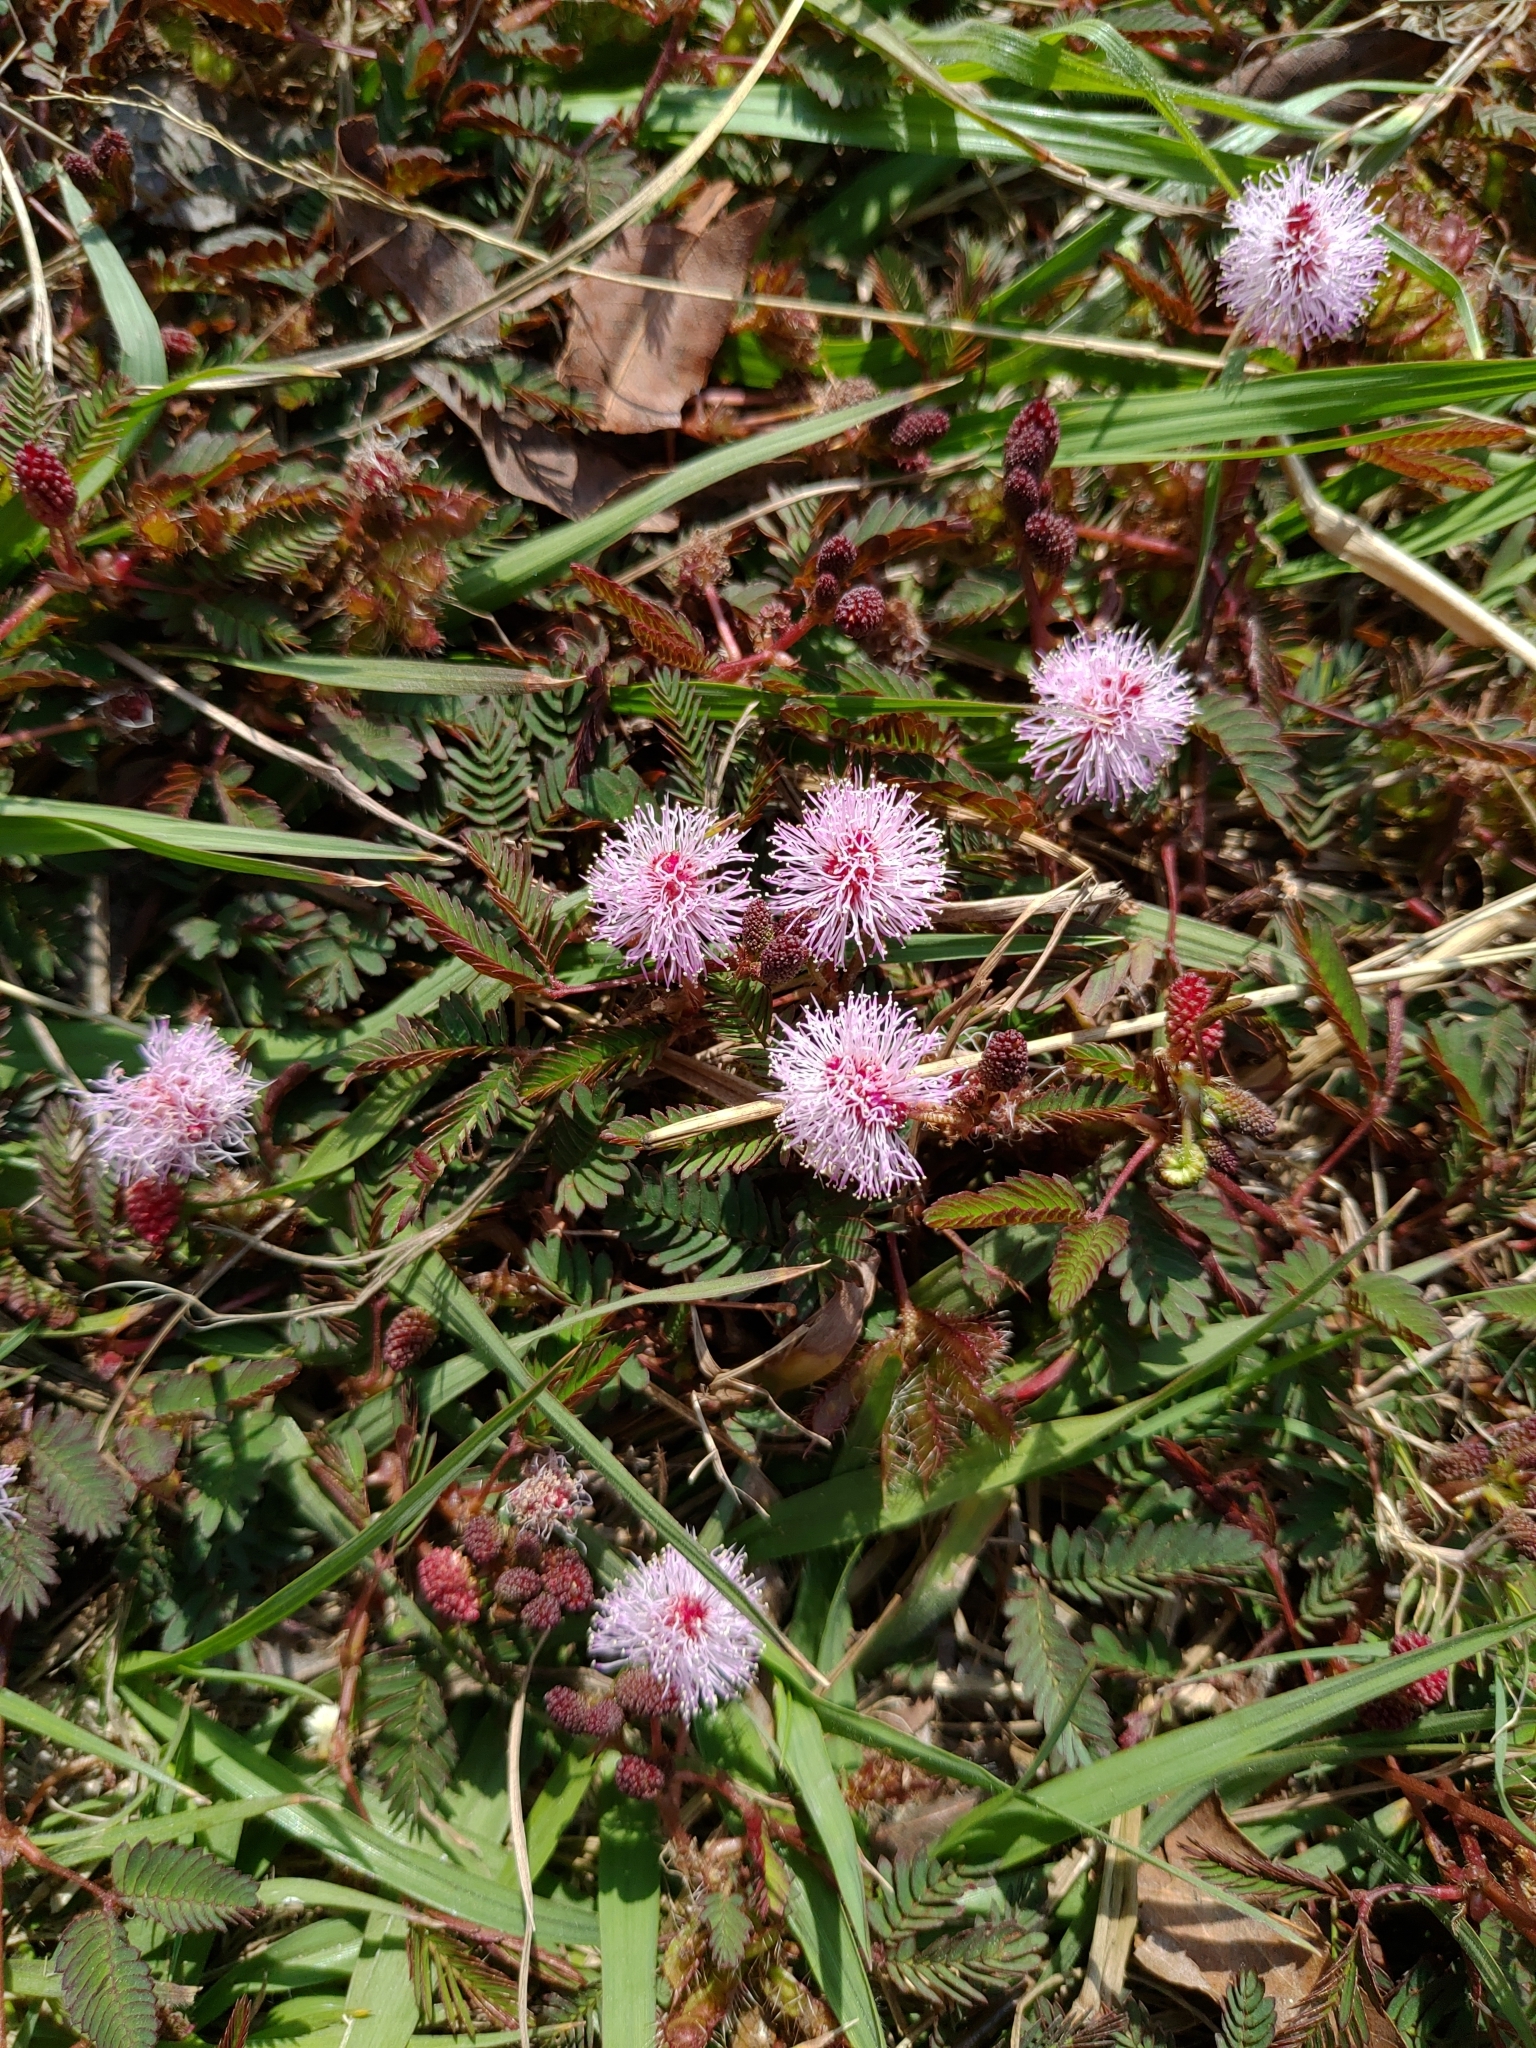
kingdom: Plantae
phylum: Tracheophyta
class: Magnoliopsida
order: Fabales
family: Fabaceae
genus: Mimosa
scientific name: Mimosa pudica
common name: Sensitive plant
